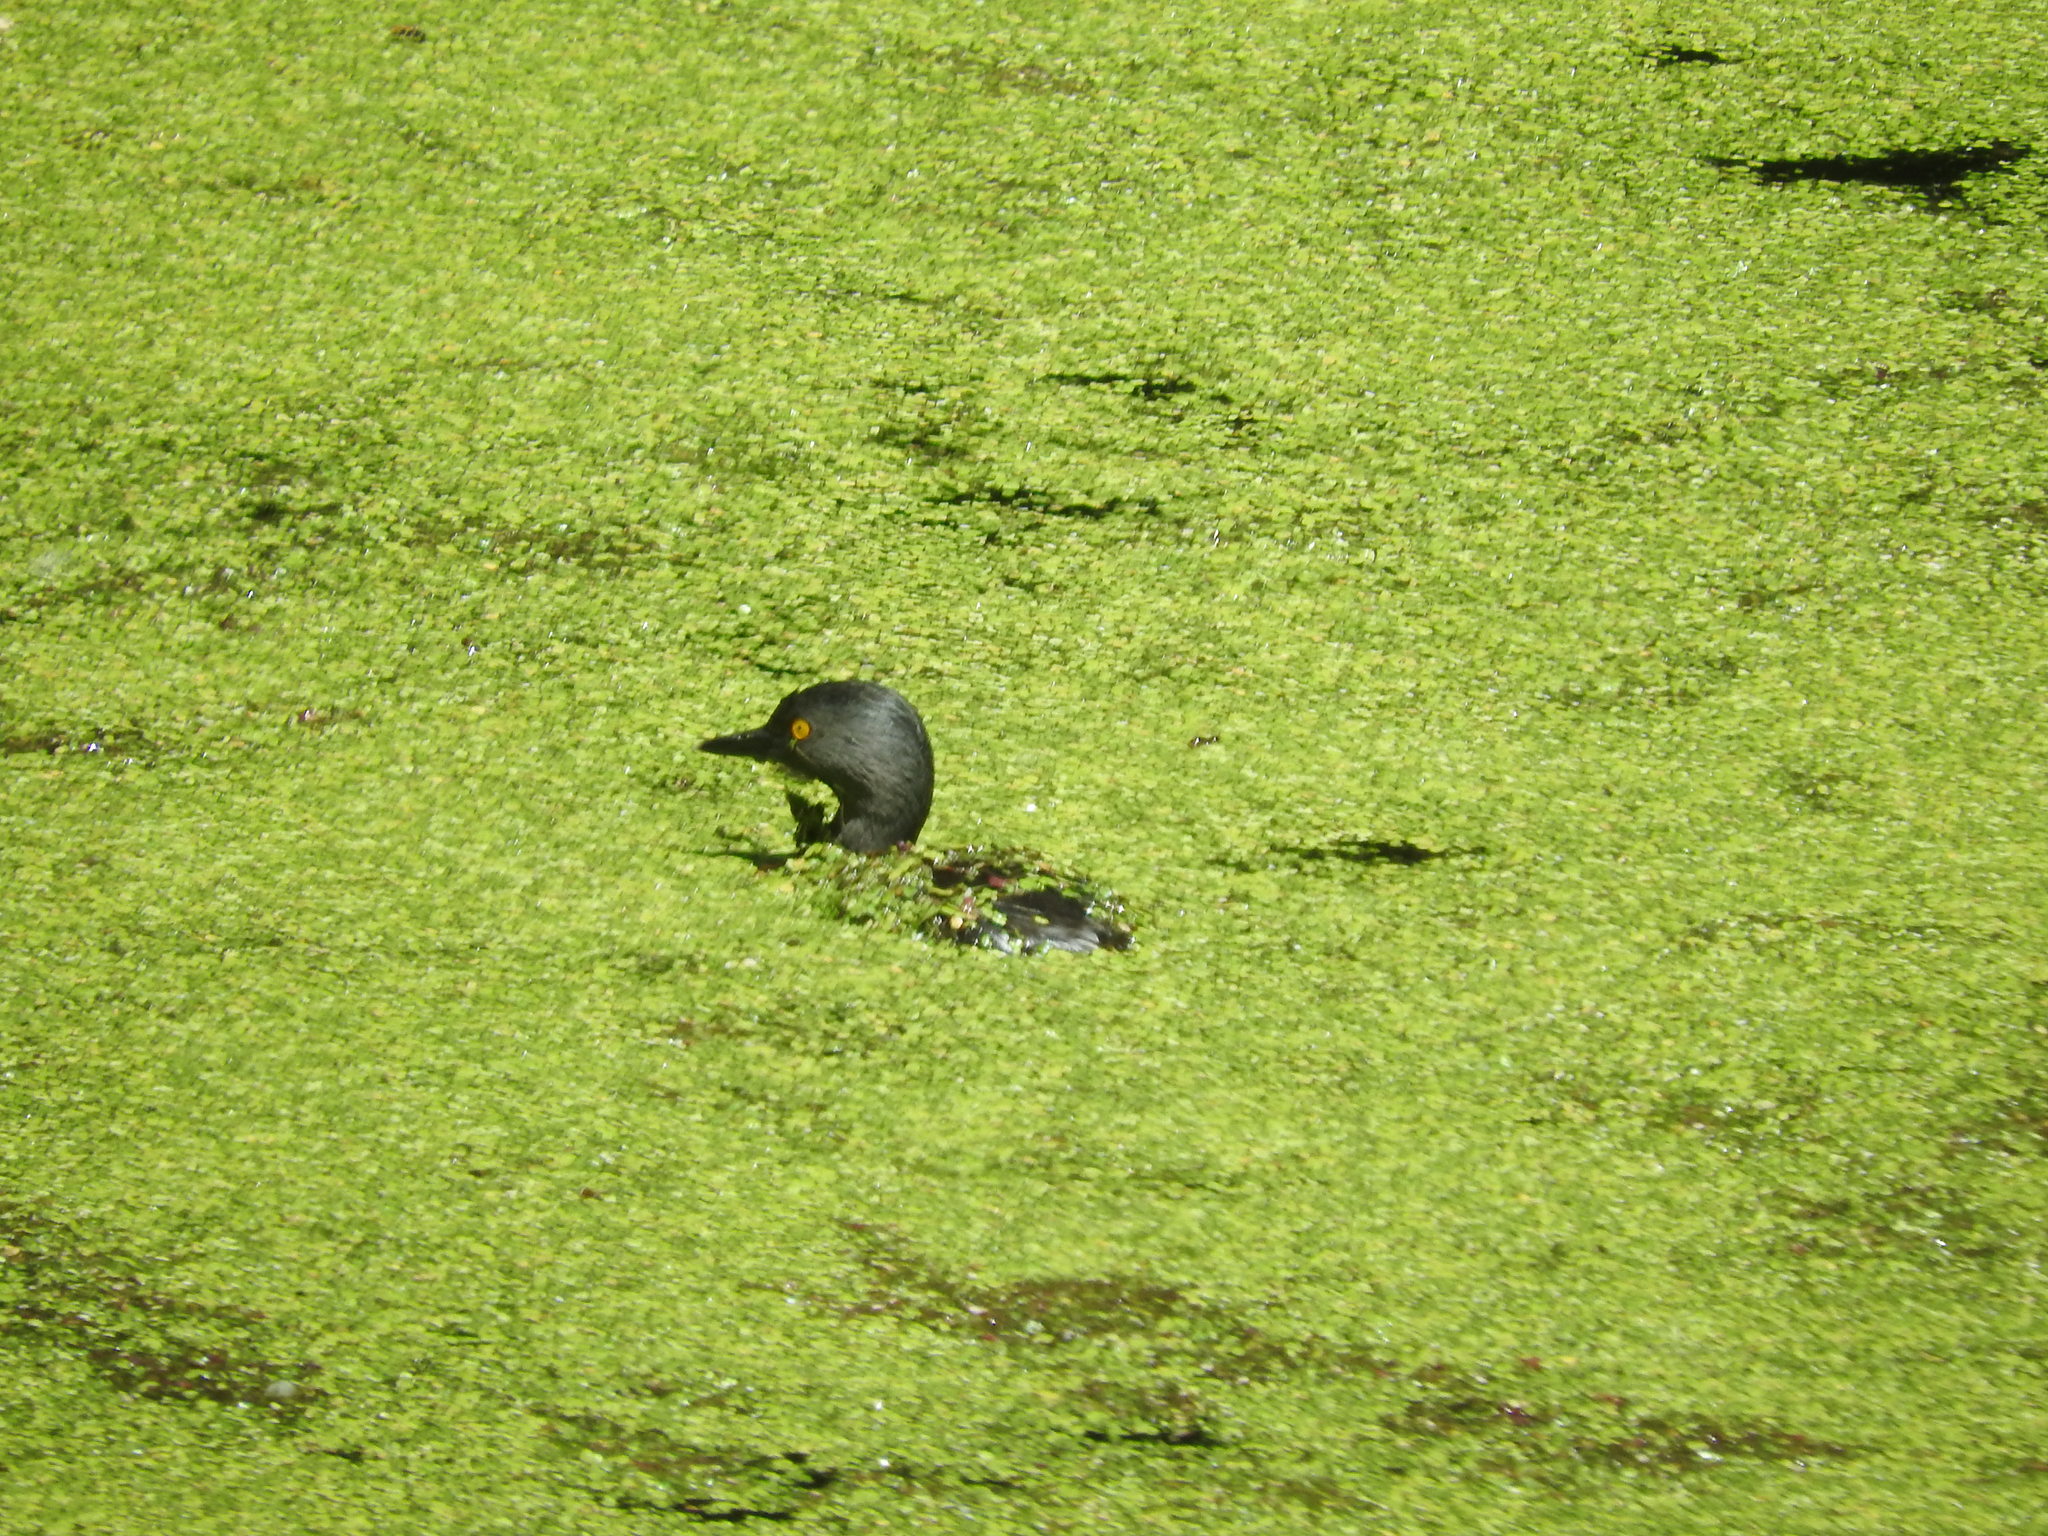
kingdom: Animalia
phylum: Chordata
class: Aves
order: Podicipediformes
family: Podicipedidae
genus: Tachybaptus
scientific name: Tachybaptus dominicus
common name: Least grebe
